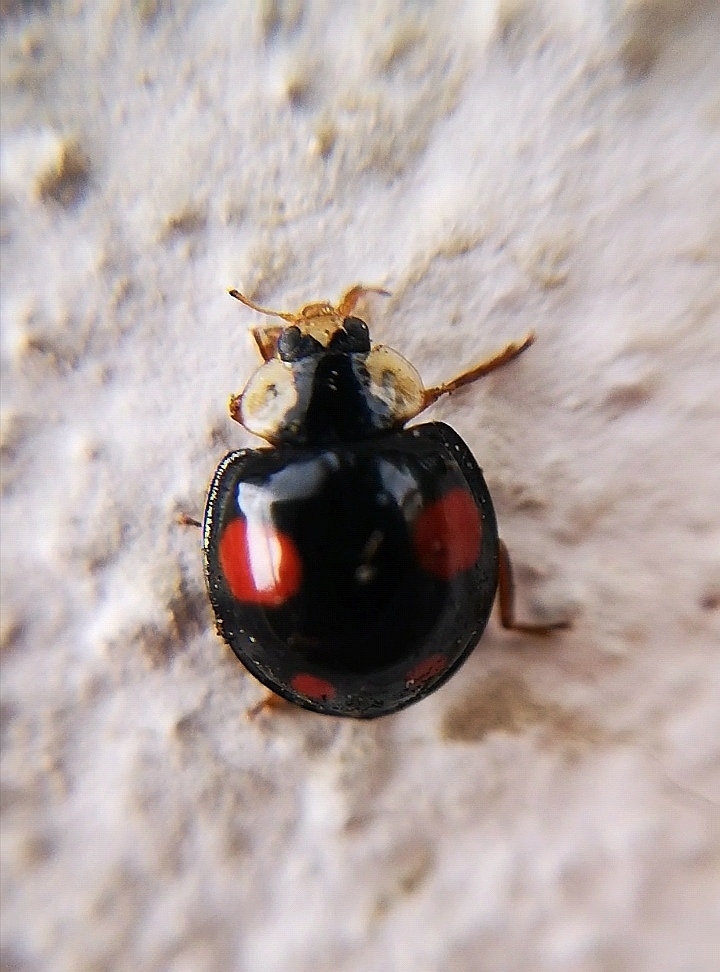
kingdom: Animalia
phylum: Arthropoda
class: Insecta
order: Coleoptera
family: Coccinellidae
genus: Harmonia
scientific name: Harmonia axyridis
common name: Harlequin ladybird
